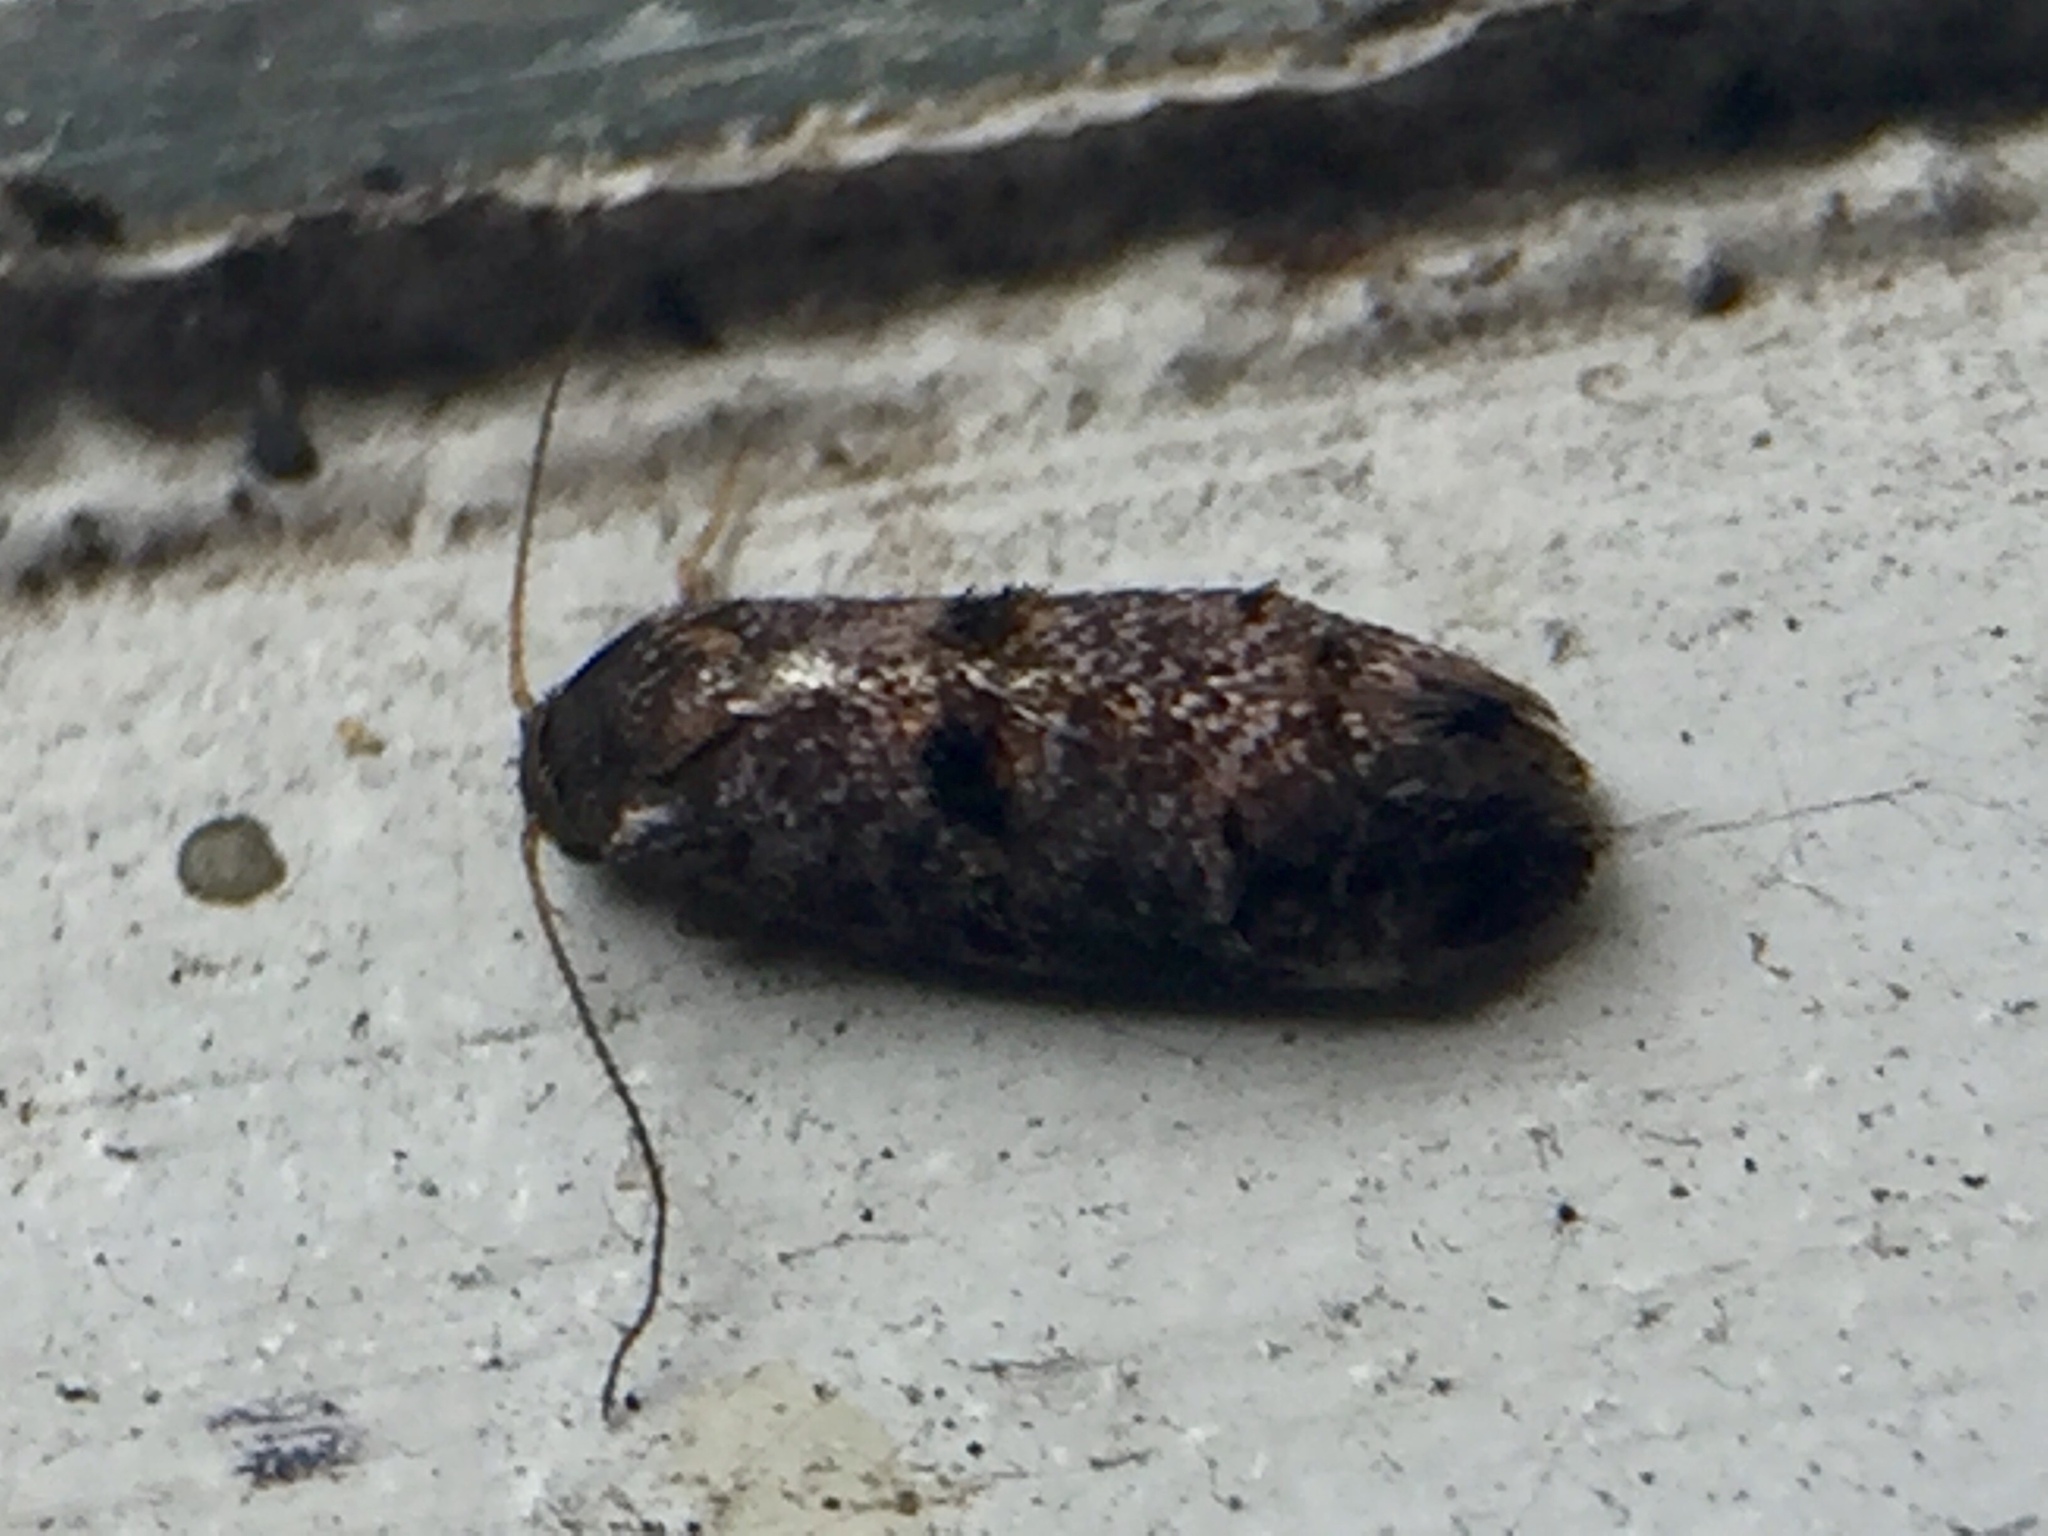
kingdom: Animalia
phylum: Arthropoda
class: Insecta
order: Lepidoptera
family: Oecophoridae
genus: Corocosma
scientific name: Corocosma memorabilis
